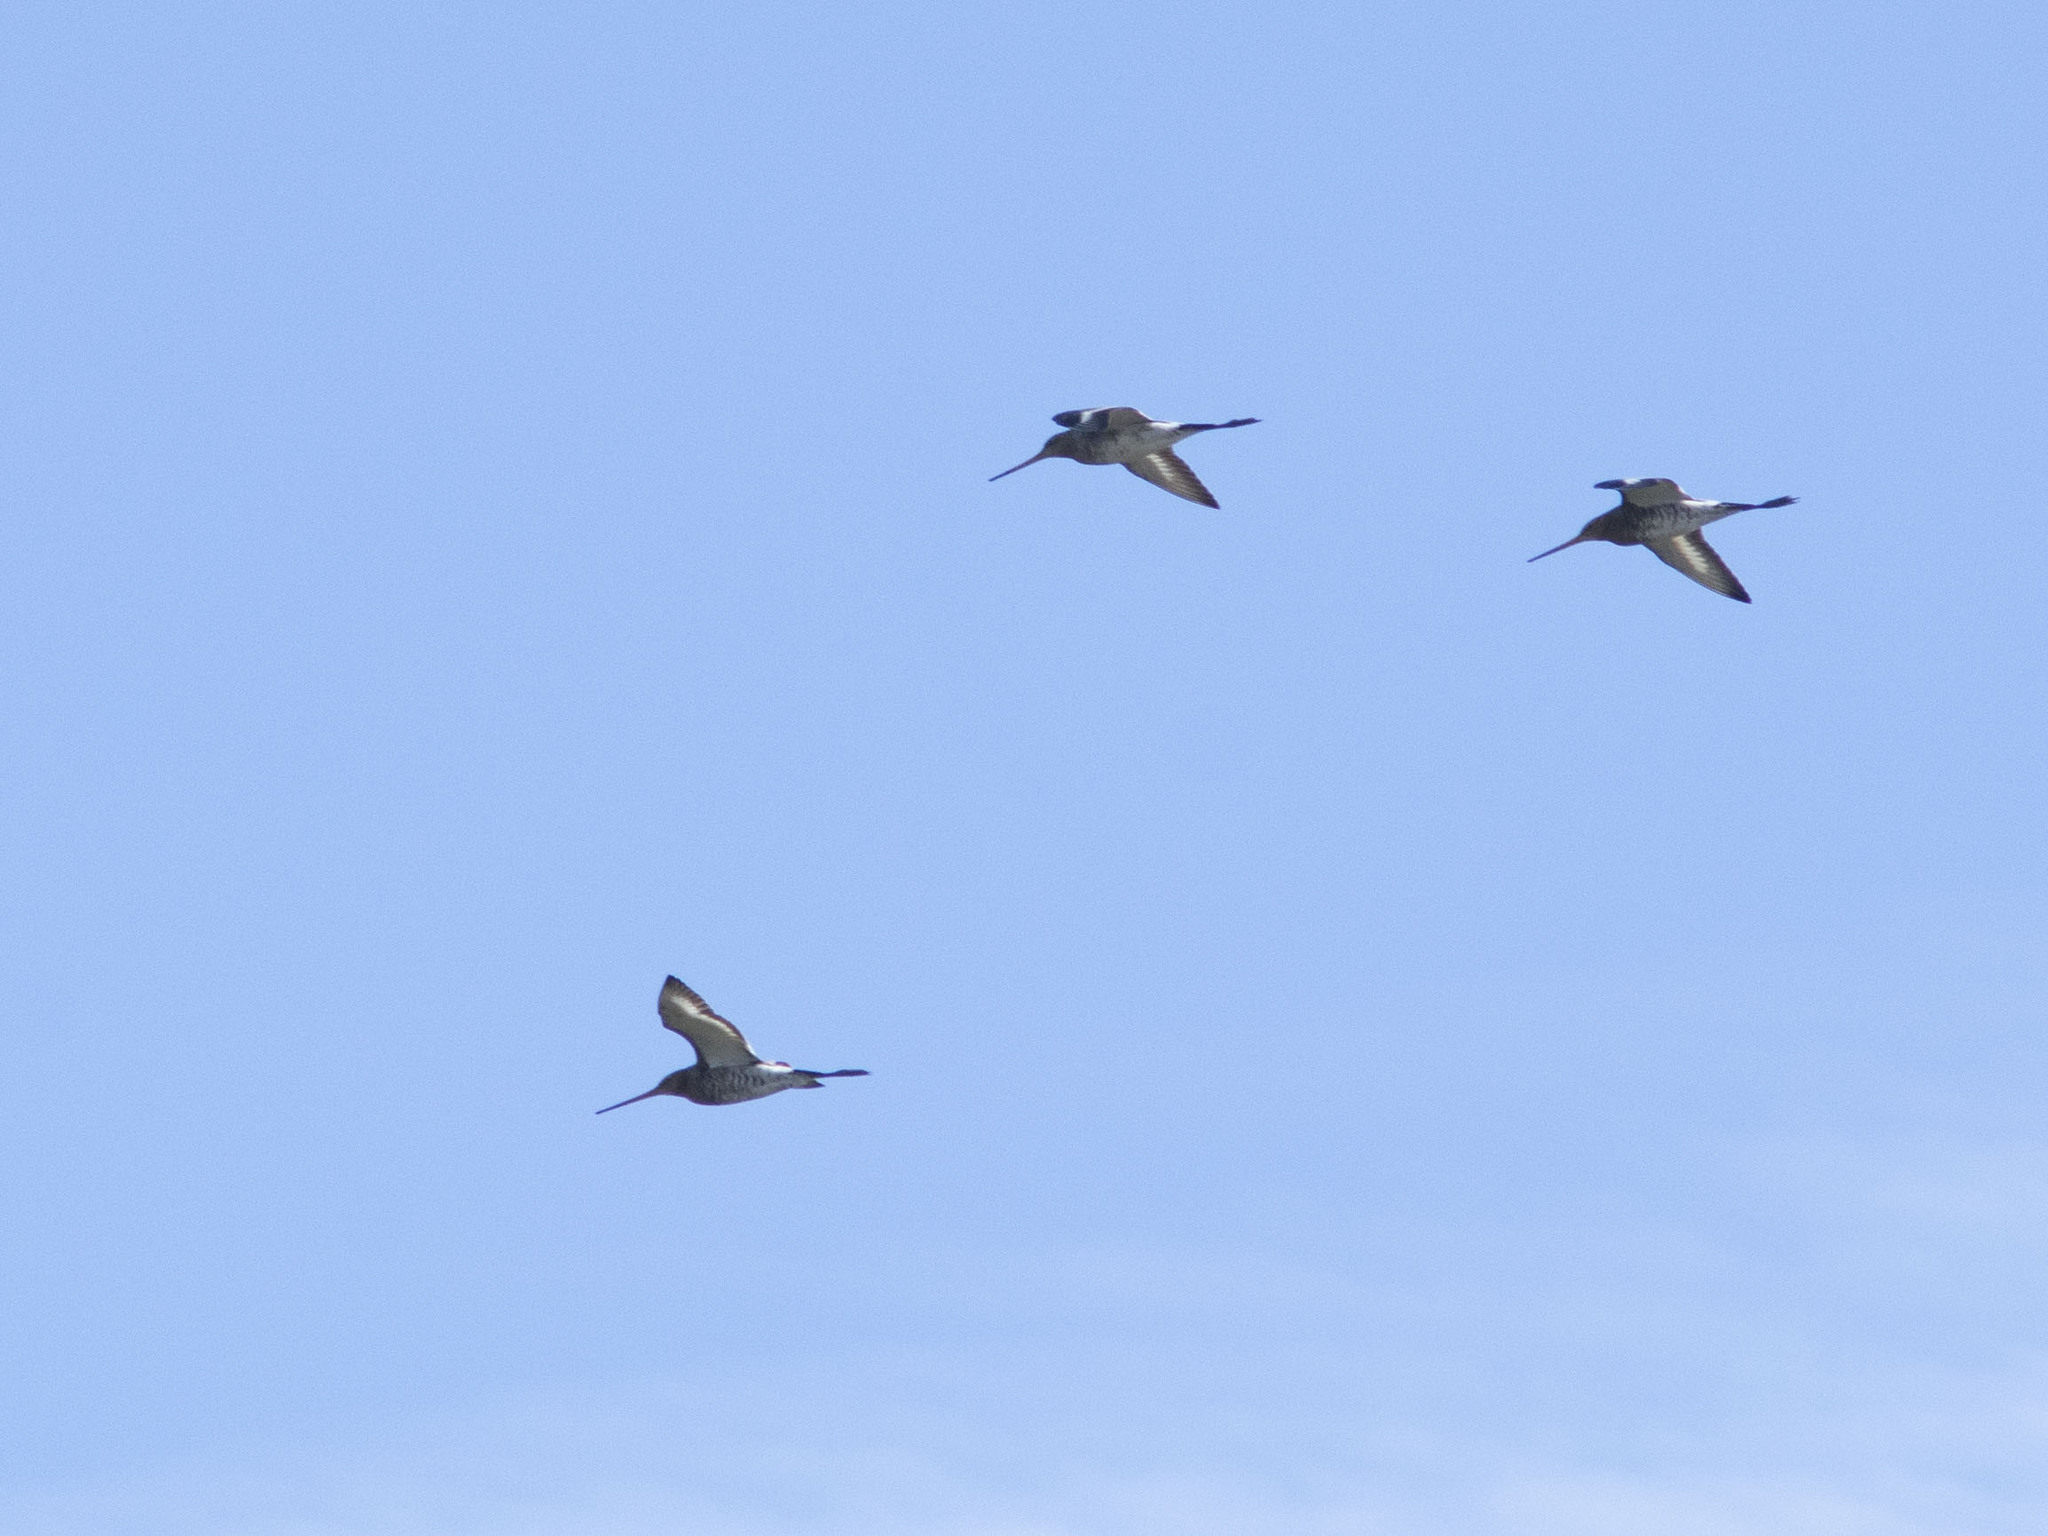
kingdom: Animalia
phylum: Chordata
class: Aves
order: Charadriiformes
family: Scolopacidae
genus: Limosa
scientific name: Limosa limosa
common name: Black-tailed godwit
